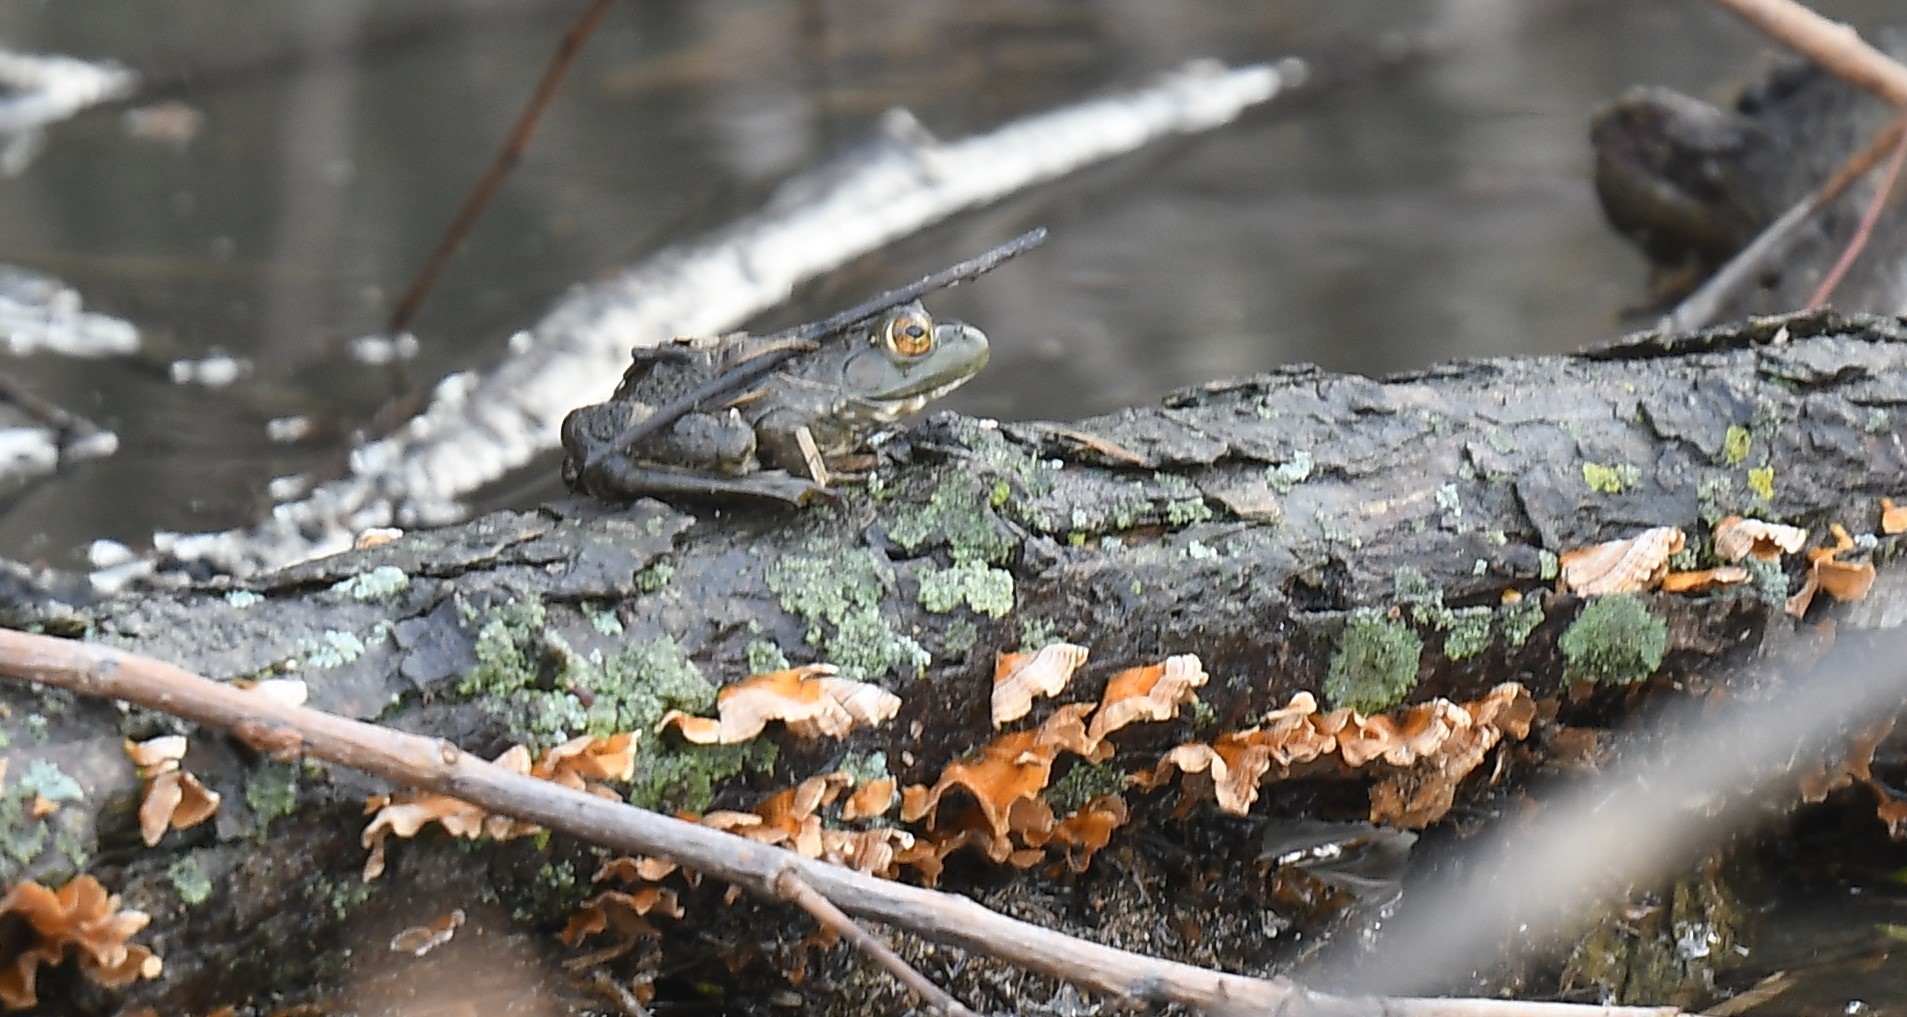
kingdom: Animalia
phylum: Chordata
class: Amphibia
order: Anura
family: Ranidae
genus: Lithobates
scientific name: Lithobates catesbeianus
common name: American bullfrog
